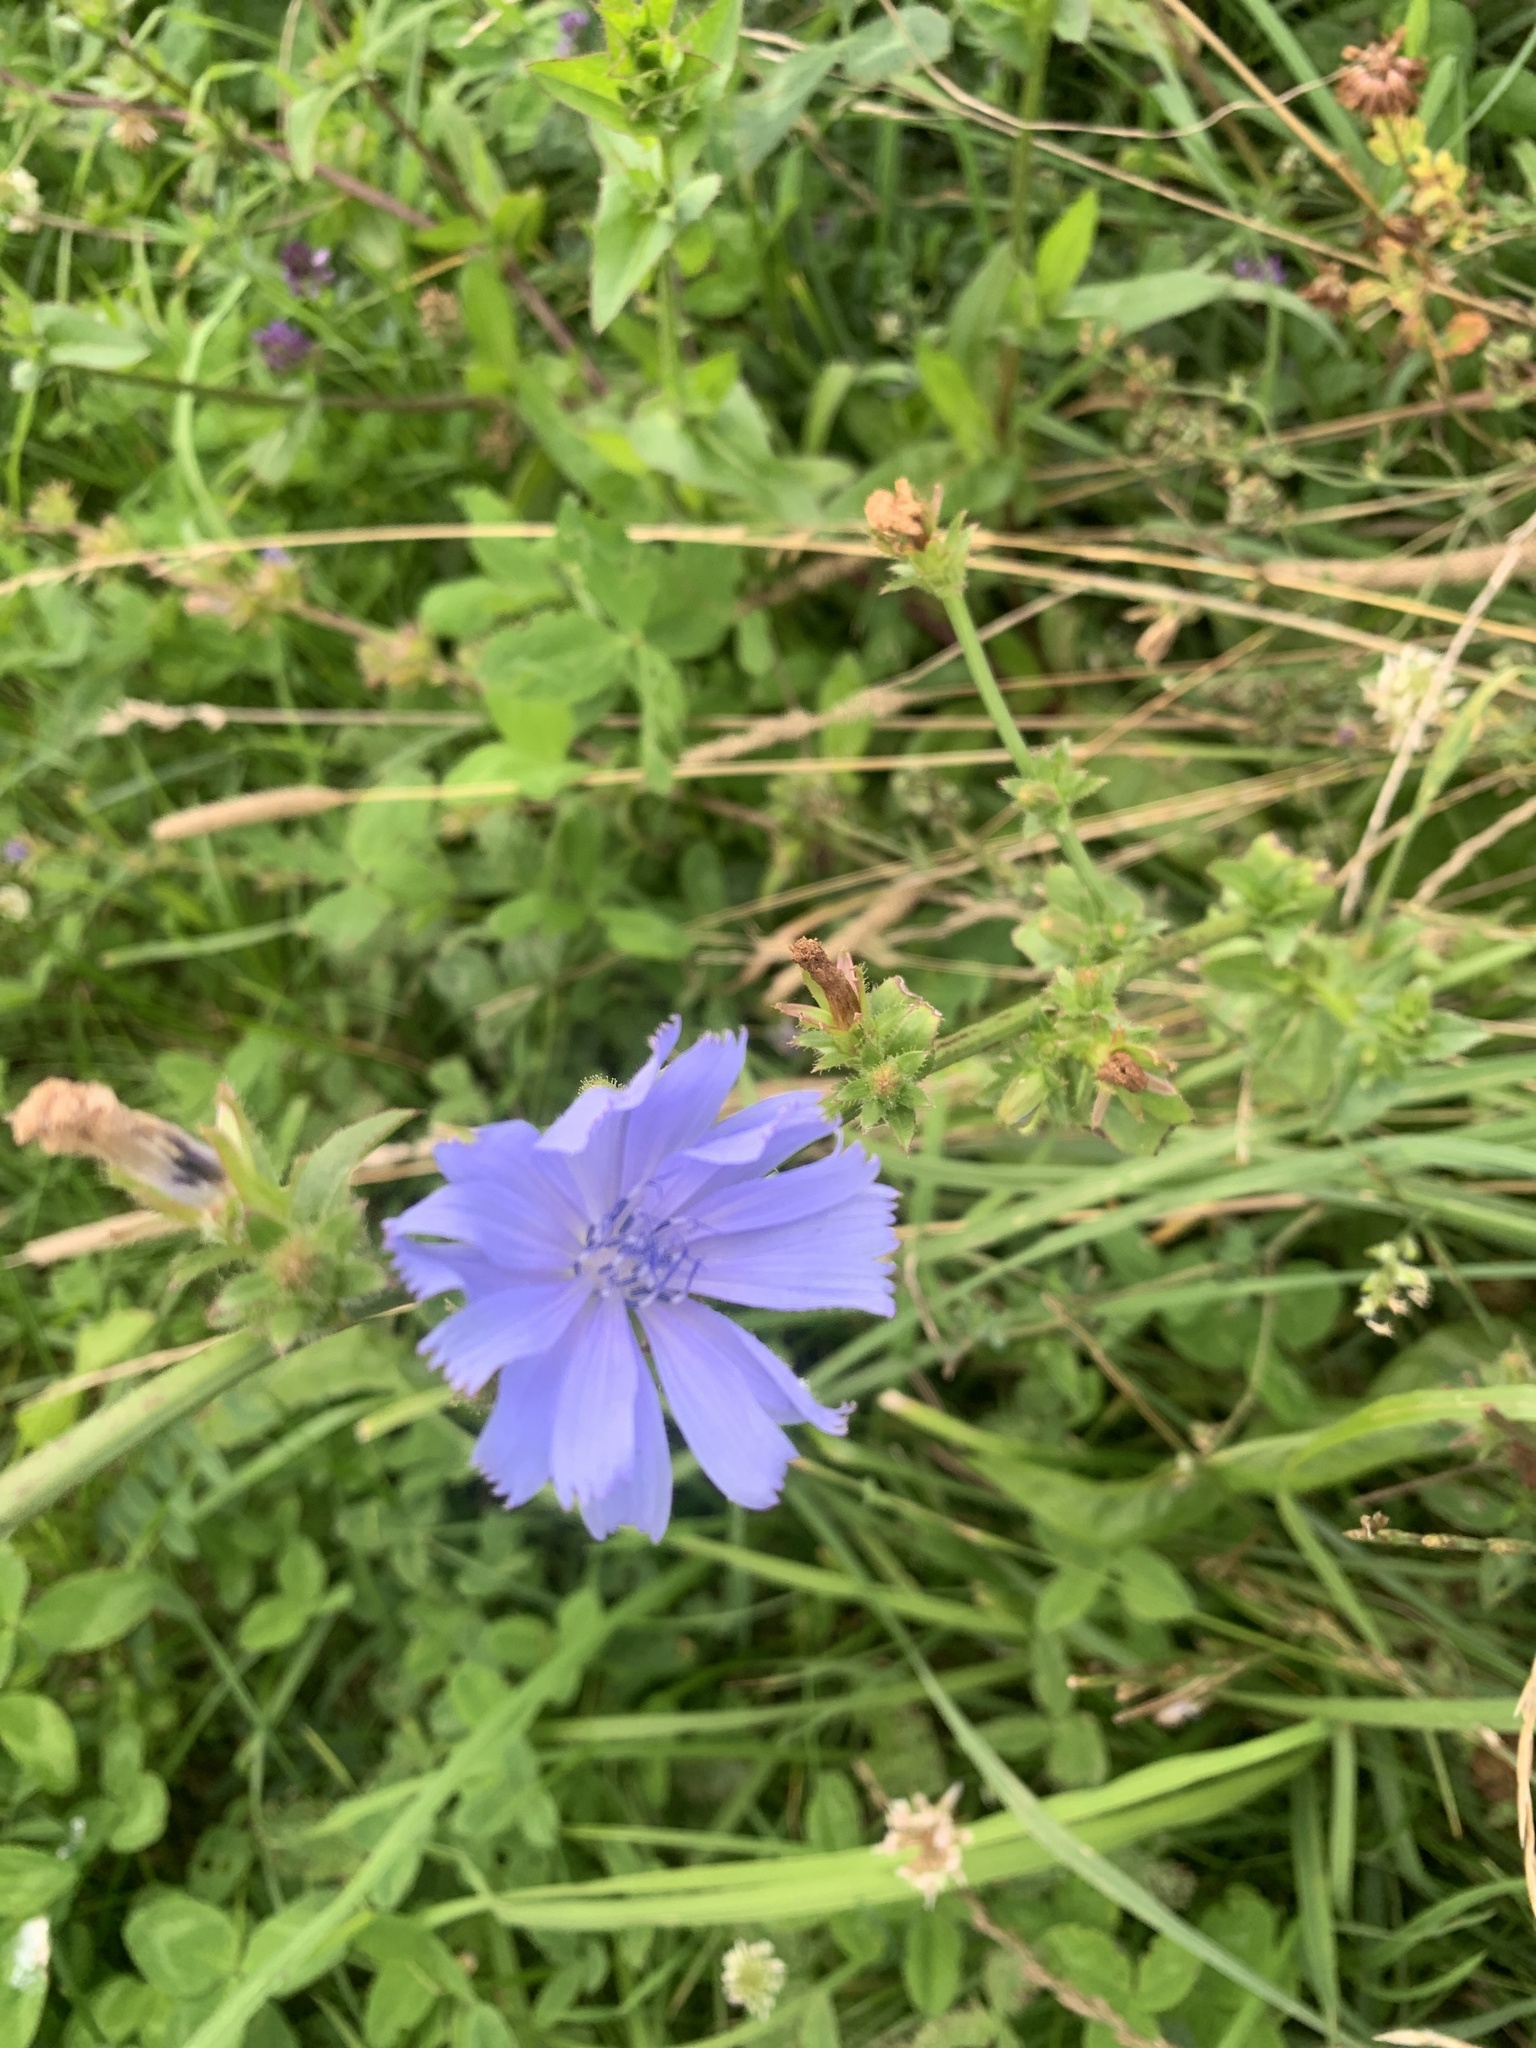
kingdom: Plantae
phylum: Tracheophyta
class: Magnoliopsida
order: Asterales
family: Asteraceae
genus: Cichorium
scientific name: Cichorium intybus
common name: Chicory
